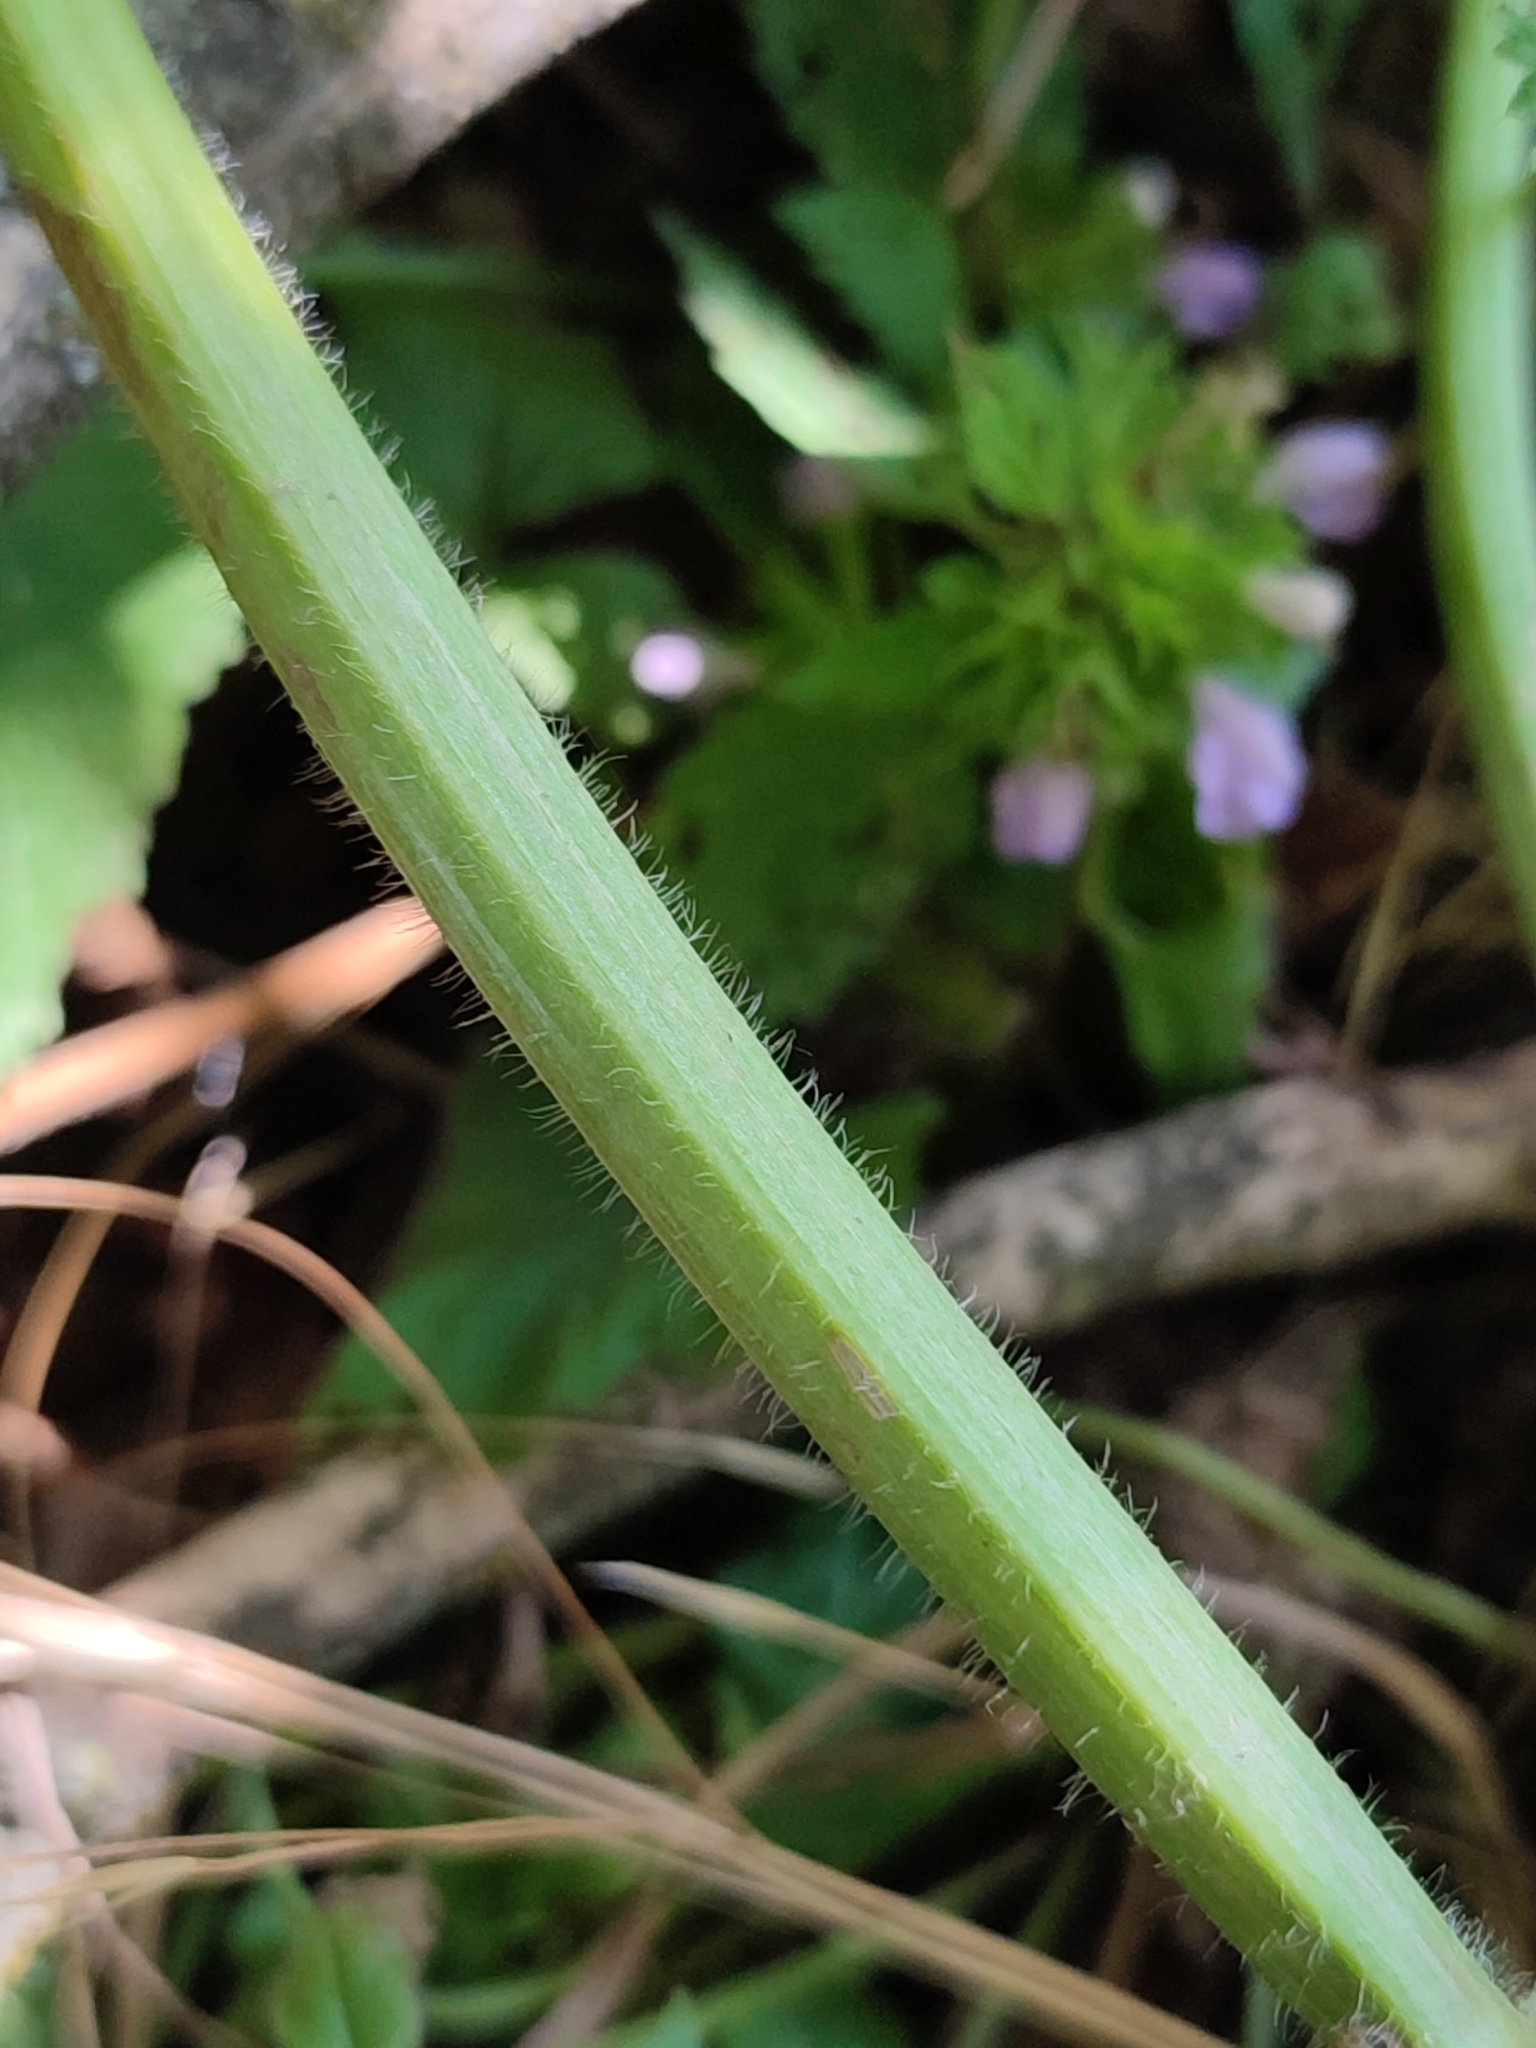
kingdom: Plantae
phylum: Tracheophyta
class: Magnoliopsida
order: Lamiales
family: Lamiaceae
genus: Ballota
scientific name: Ballota nigra
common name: Black horehound
